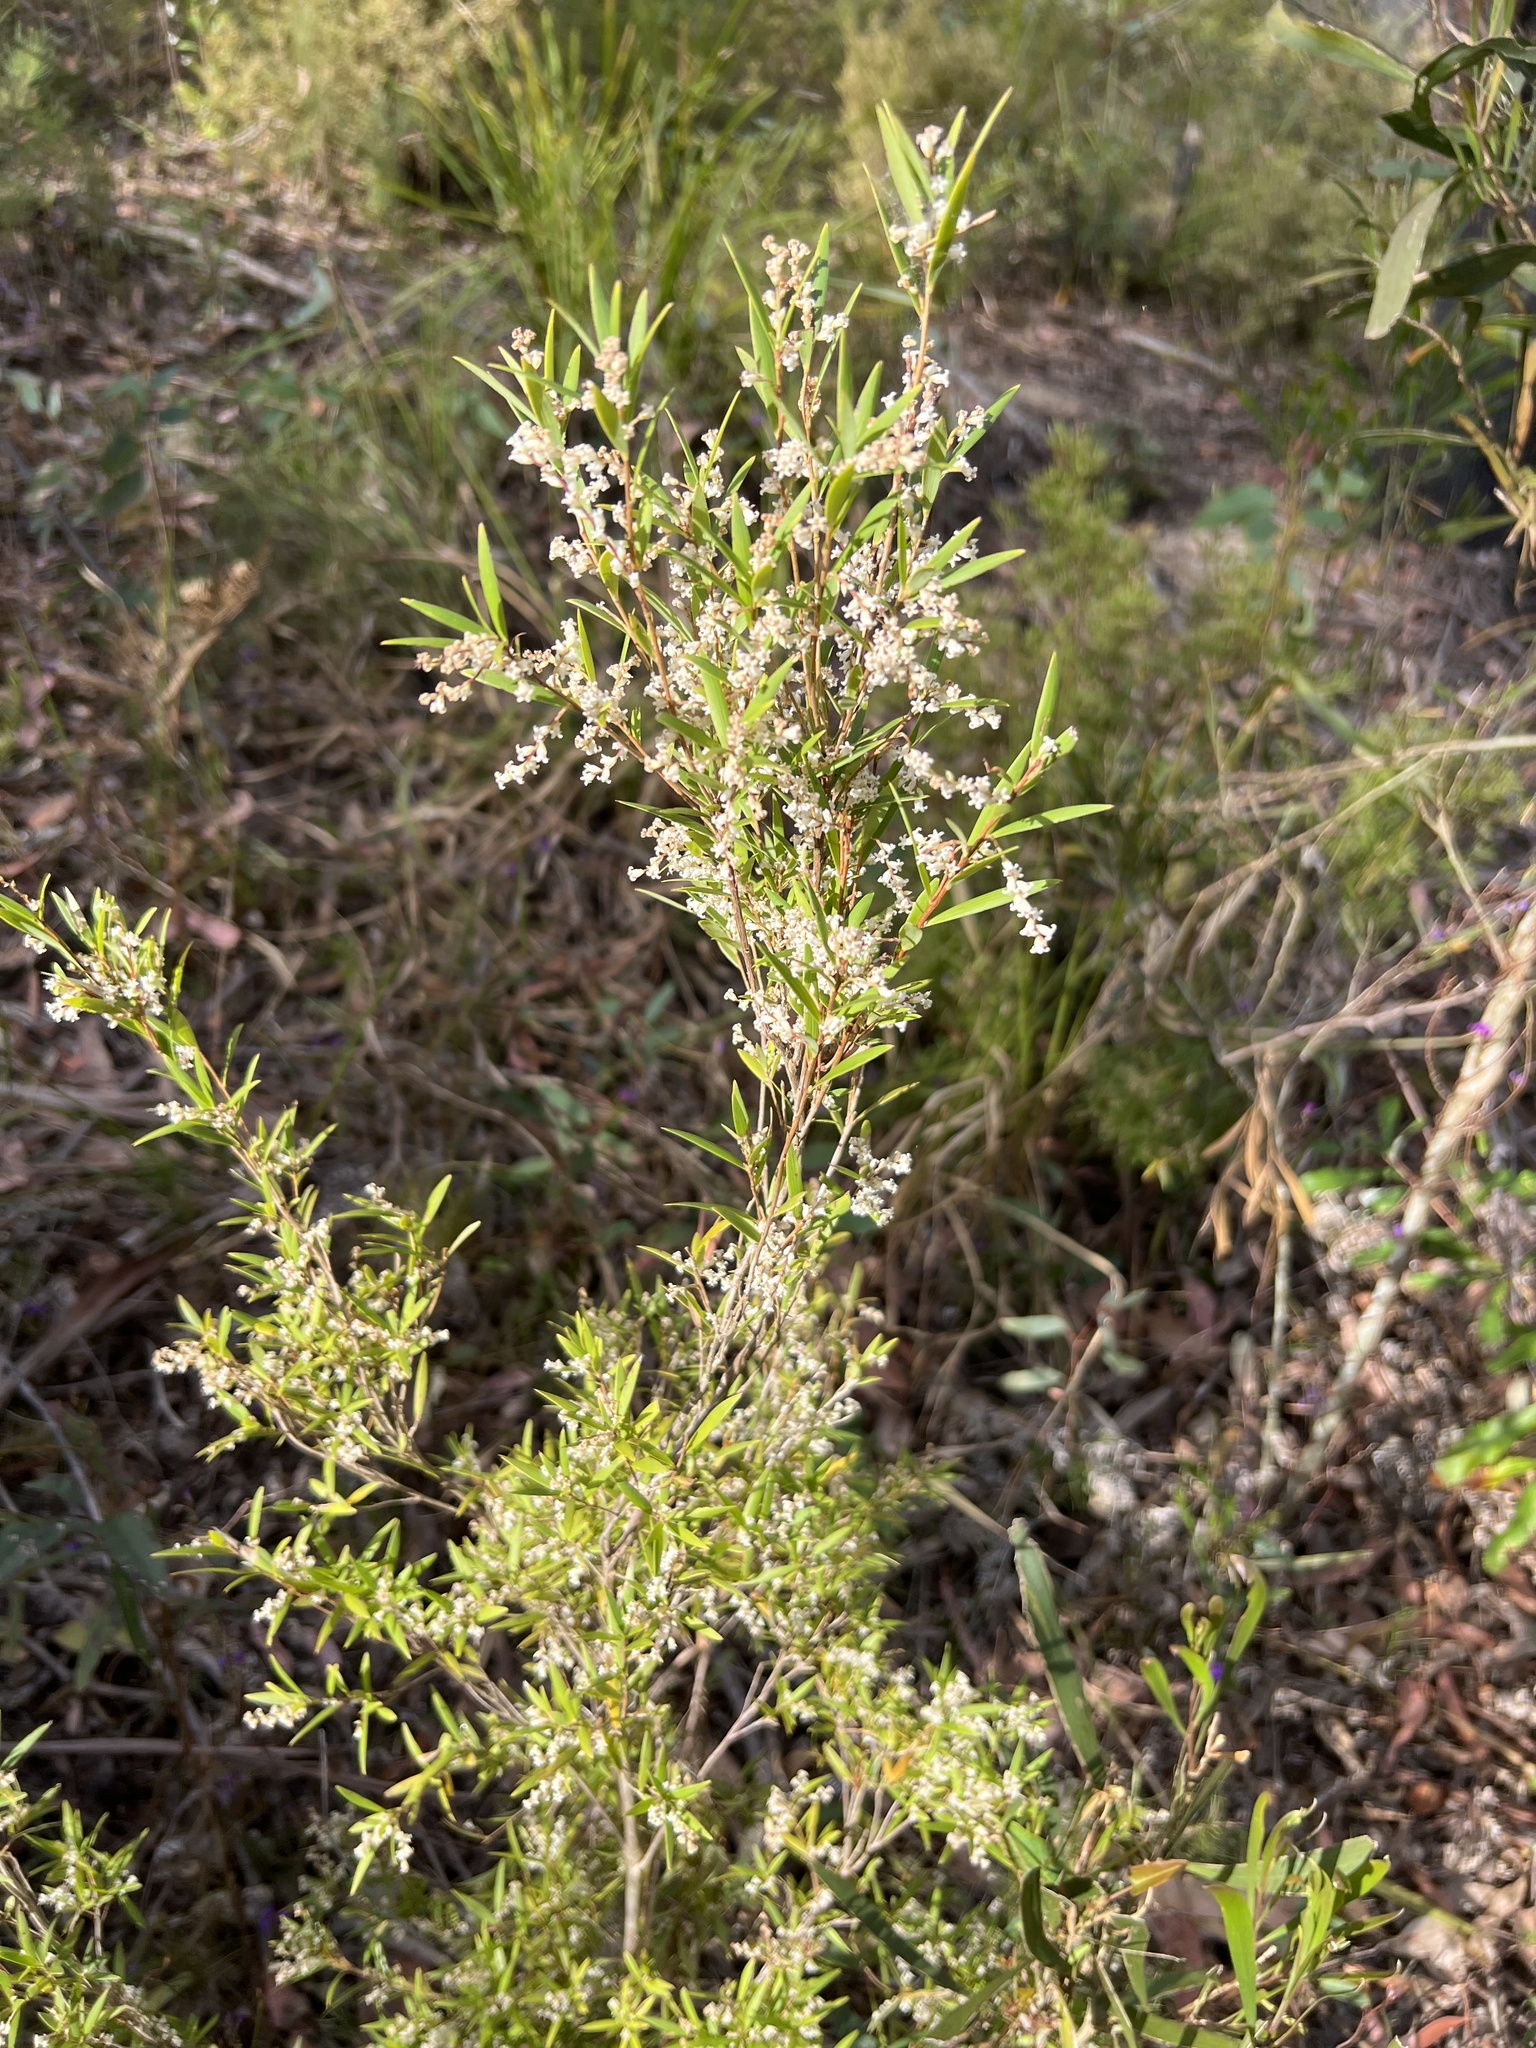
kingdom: Plantae
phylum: Tracheophyta
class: Magnoliopsida
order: Ericales
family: Ericaceae
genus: Leucopogon
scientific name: Leucopogon lanceolatus
